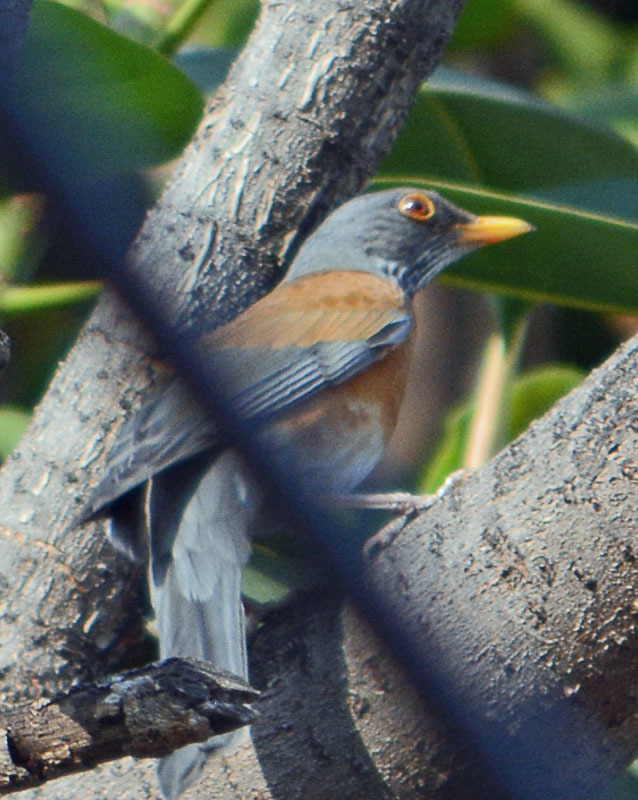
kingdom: Animalia
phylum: Chordata
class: Aves
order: Passeriformes
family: Turdidae
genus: Turdus
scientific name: Turdus rufopalliatus
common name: Rufous-backed robin
